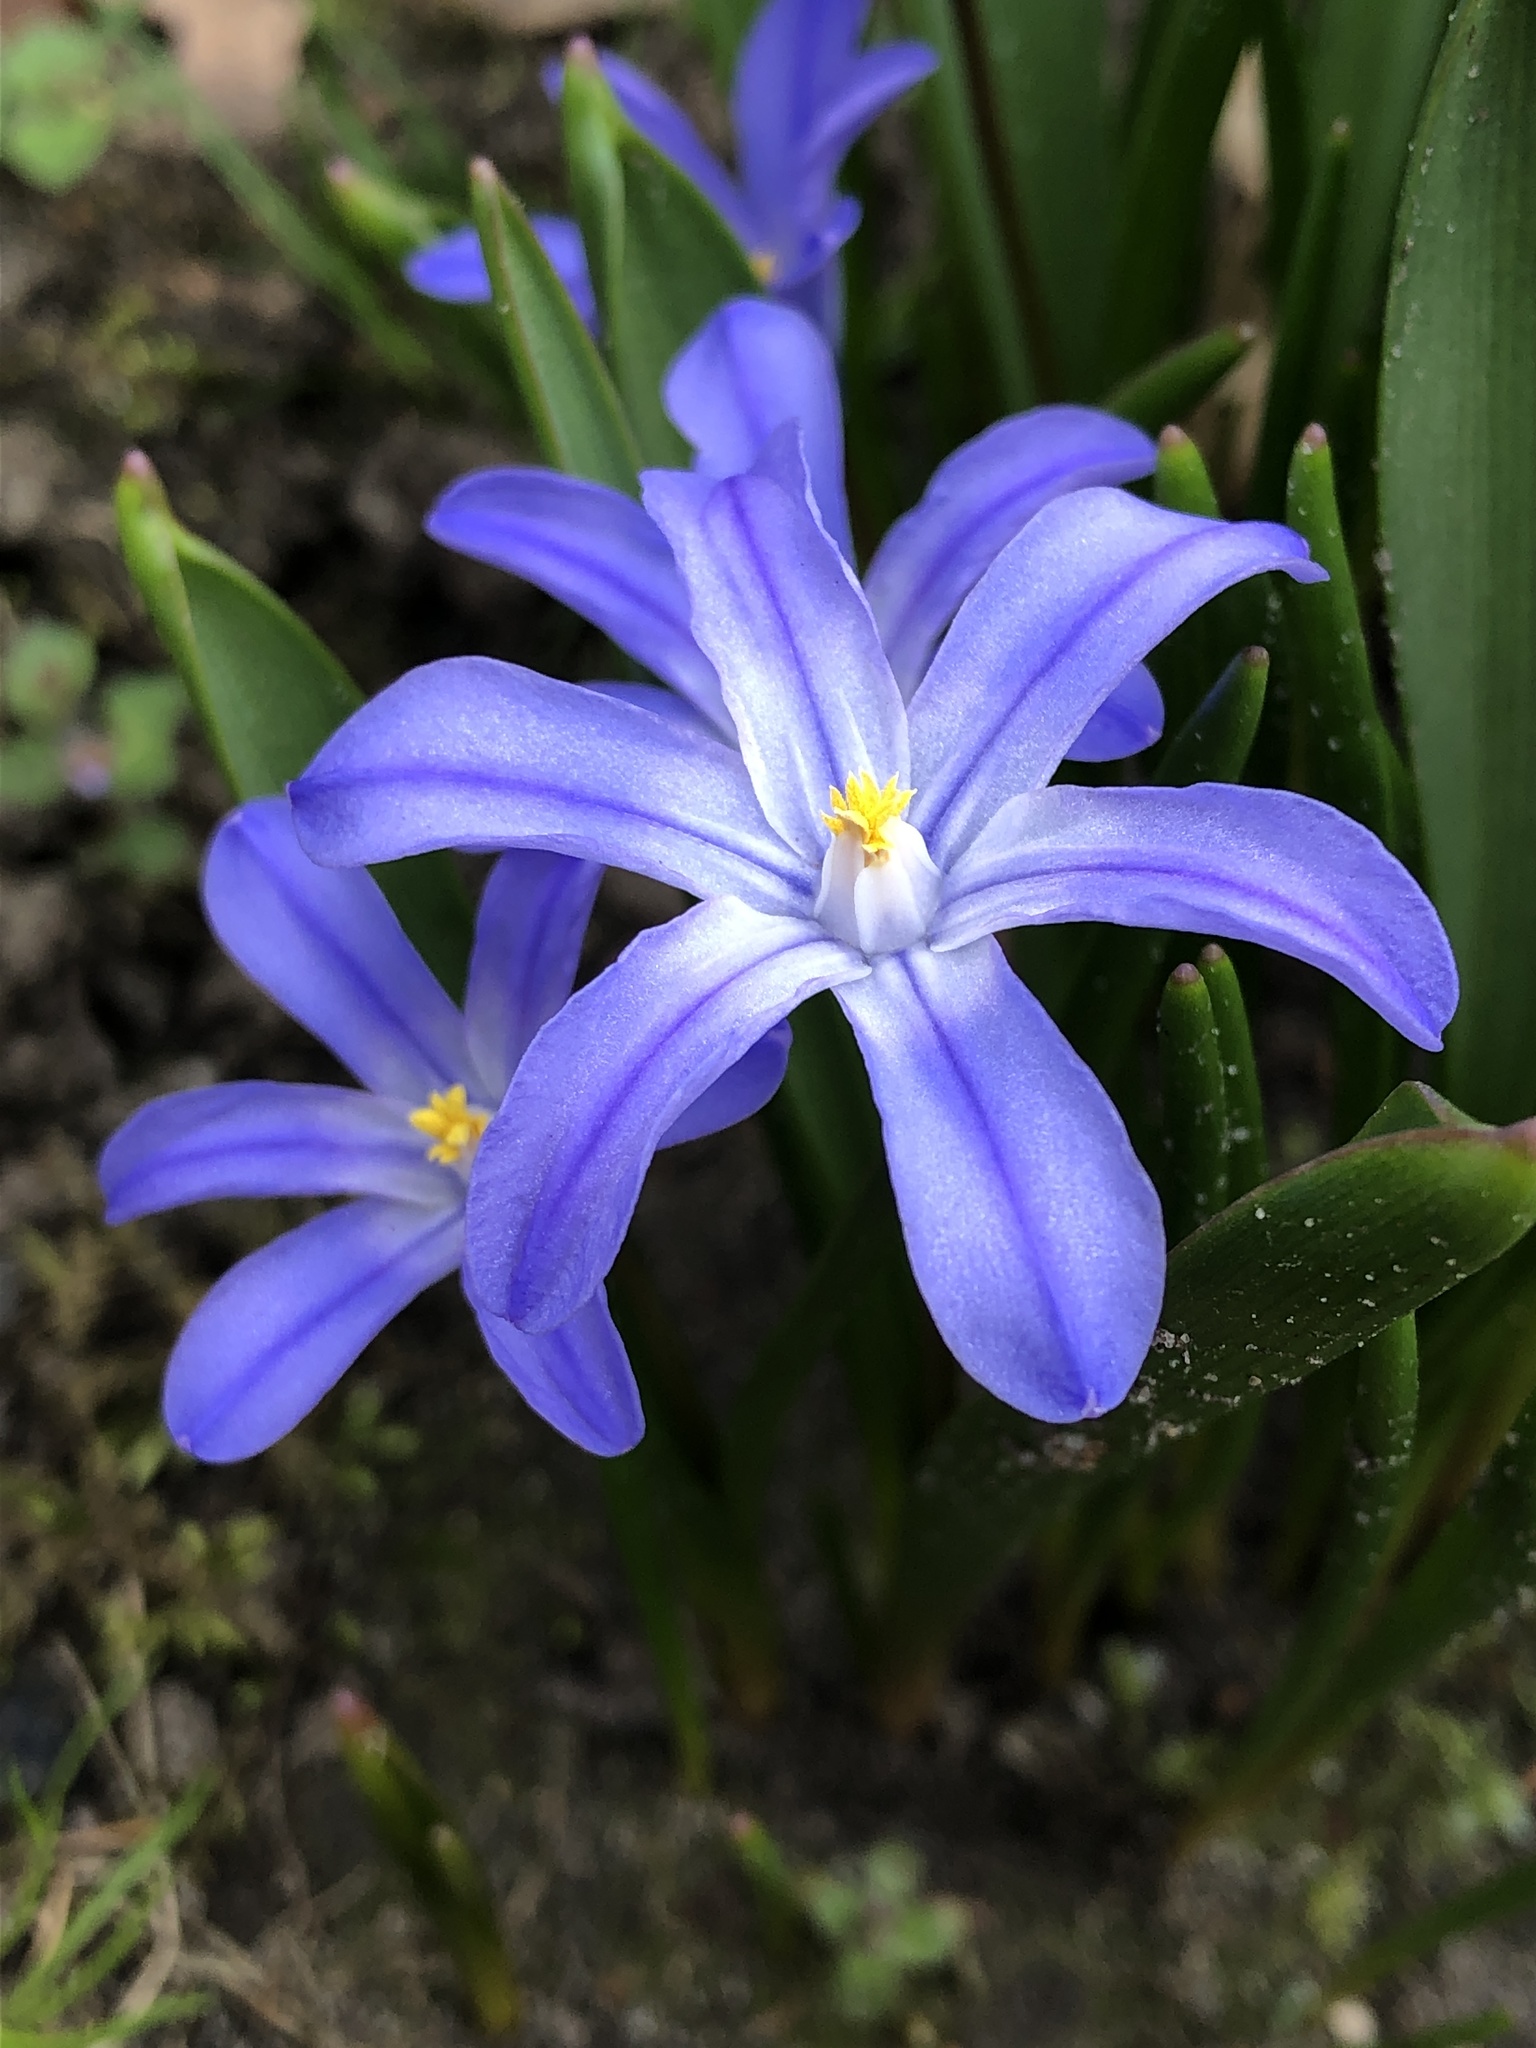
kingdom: Plantae
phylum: Tracheophyta
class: Liliopsida
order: Asparagales
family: Asparagaceae
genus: Scilla
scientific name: Scilla luciliae
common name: Boissier's glory-of-the-snow
